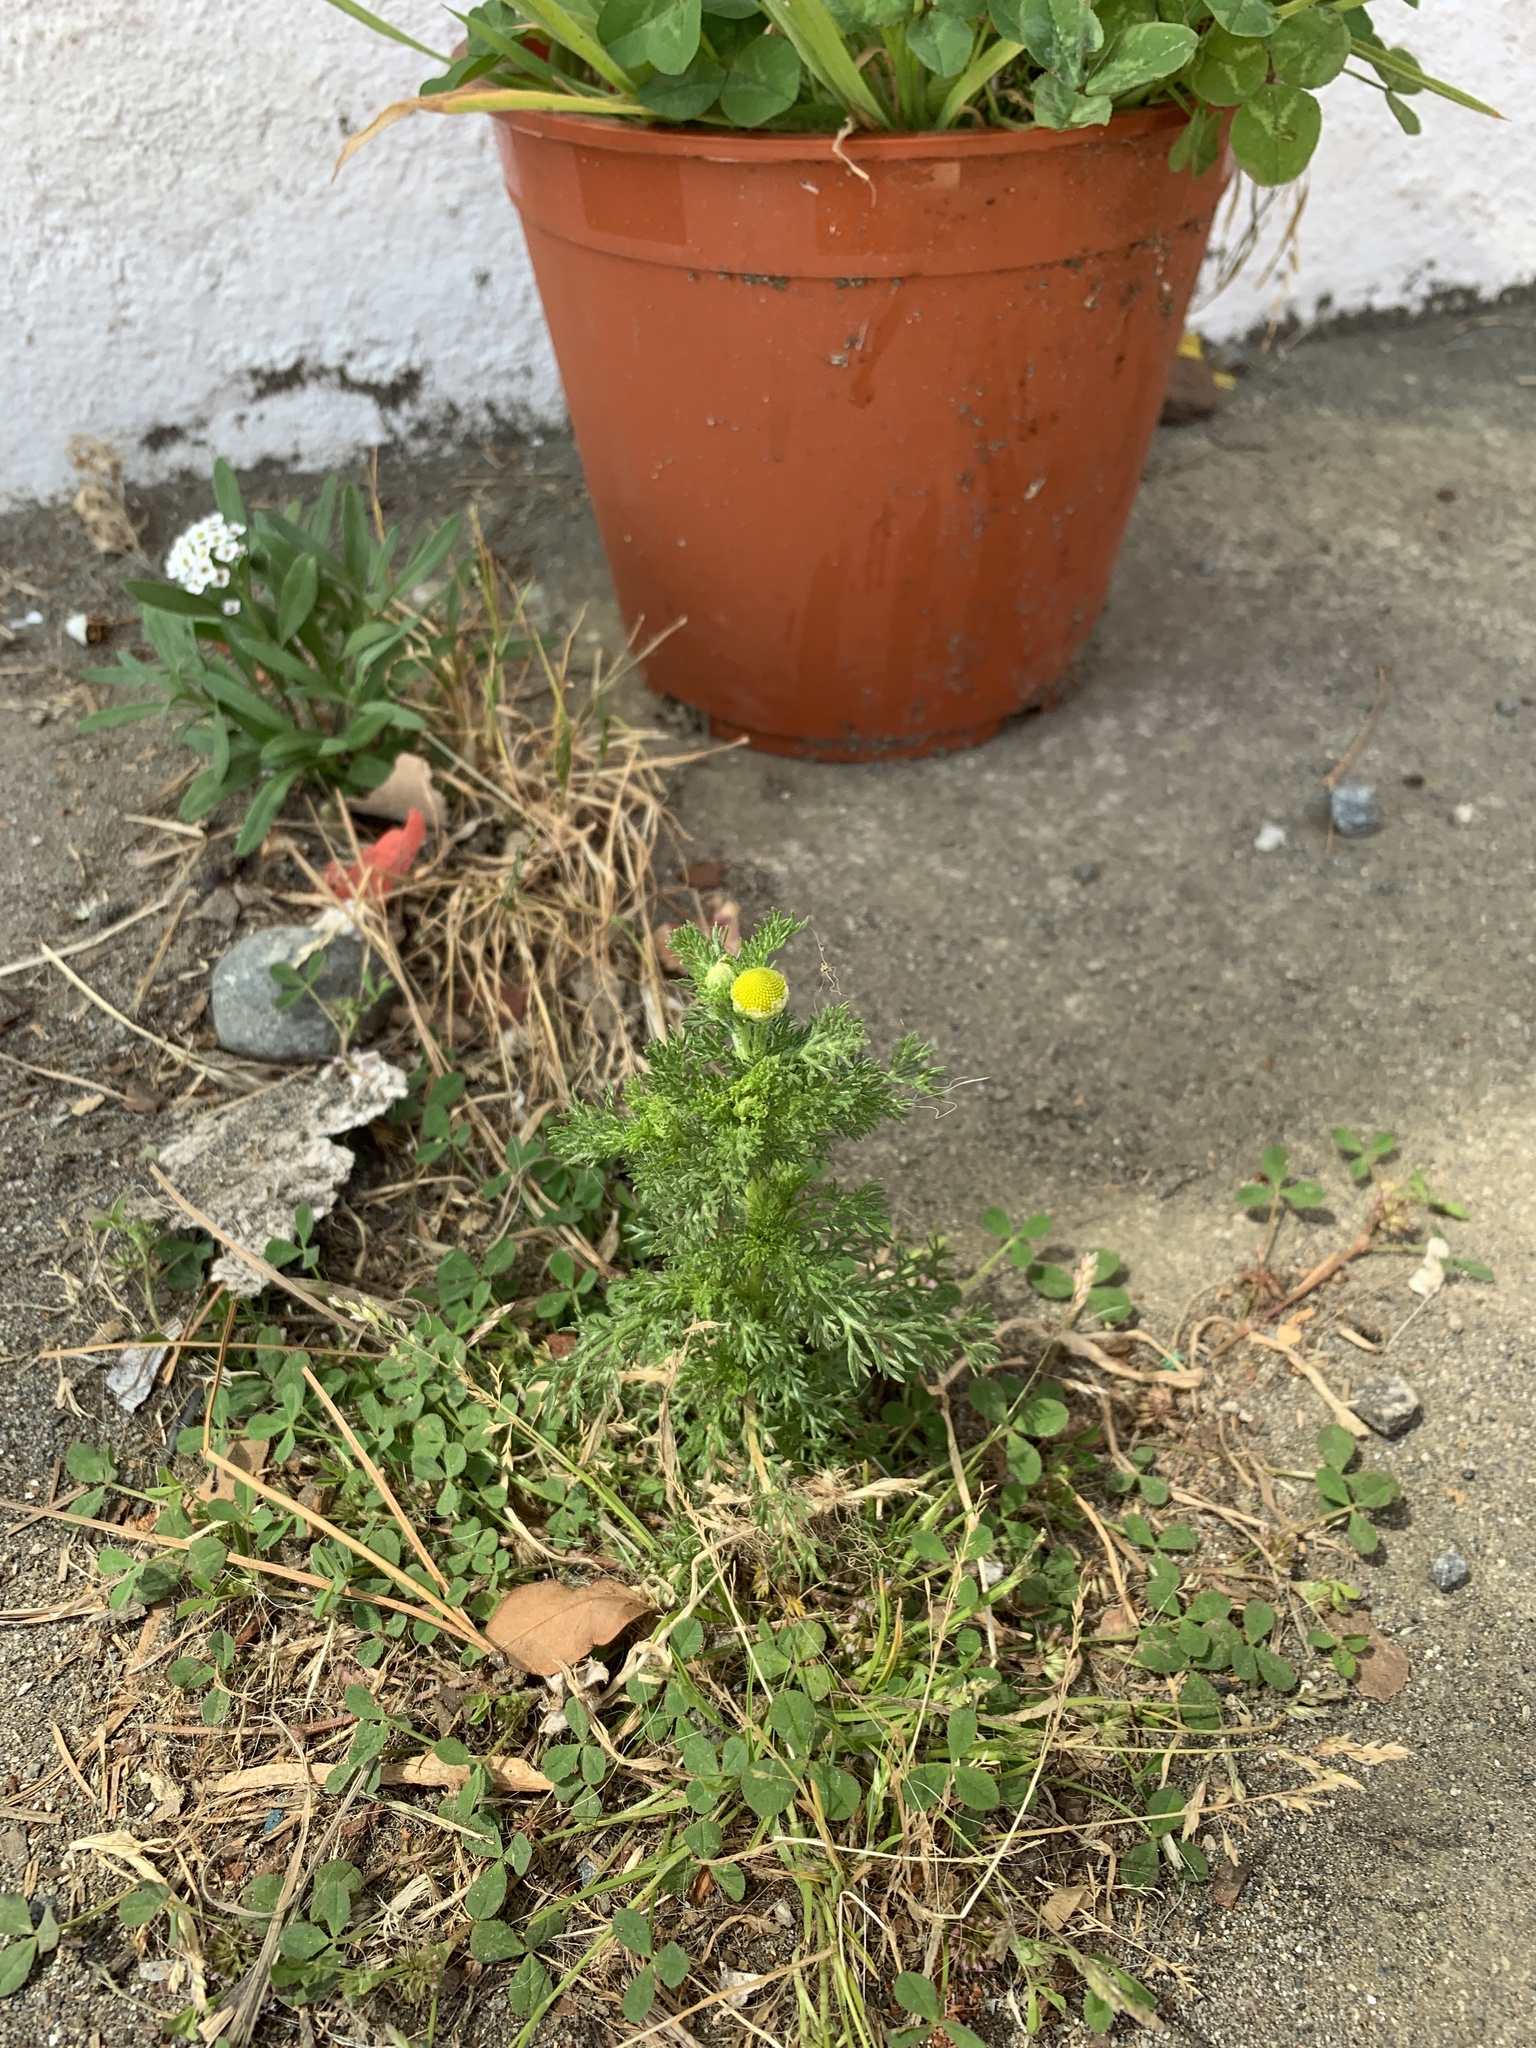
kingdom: Plantae
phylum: Tracheophyta
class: Magnoliopsida
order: Asterales
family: Asteraceae
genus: Matricaria
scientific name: Matricaria discoidea
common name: Disc mayweed
